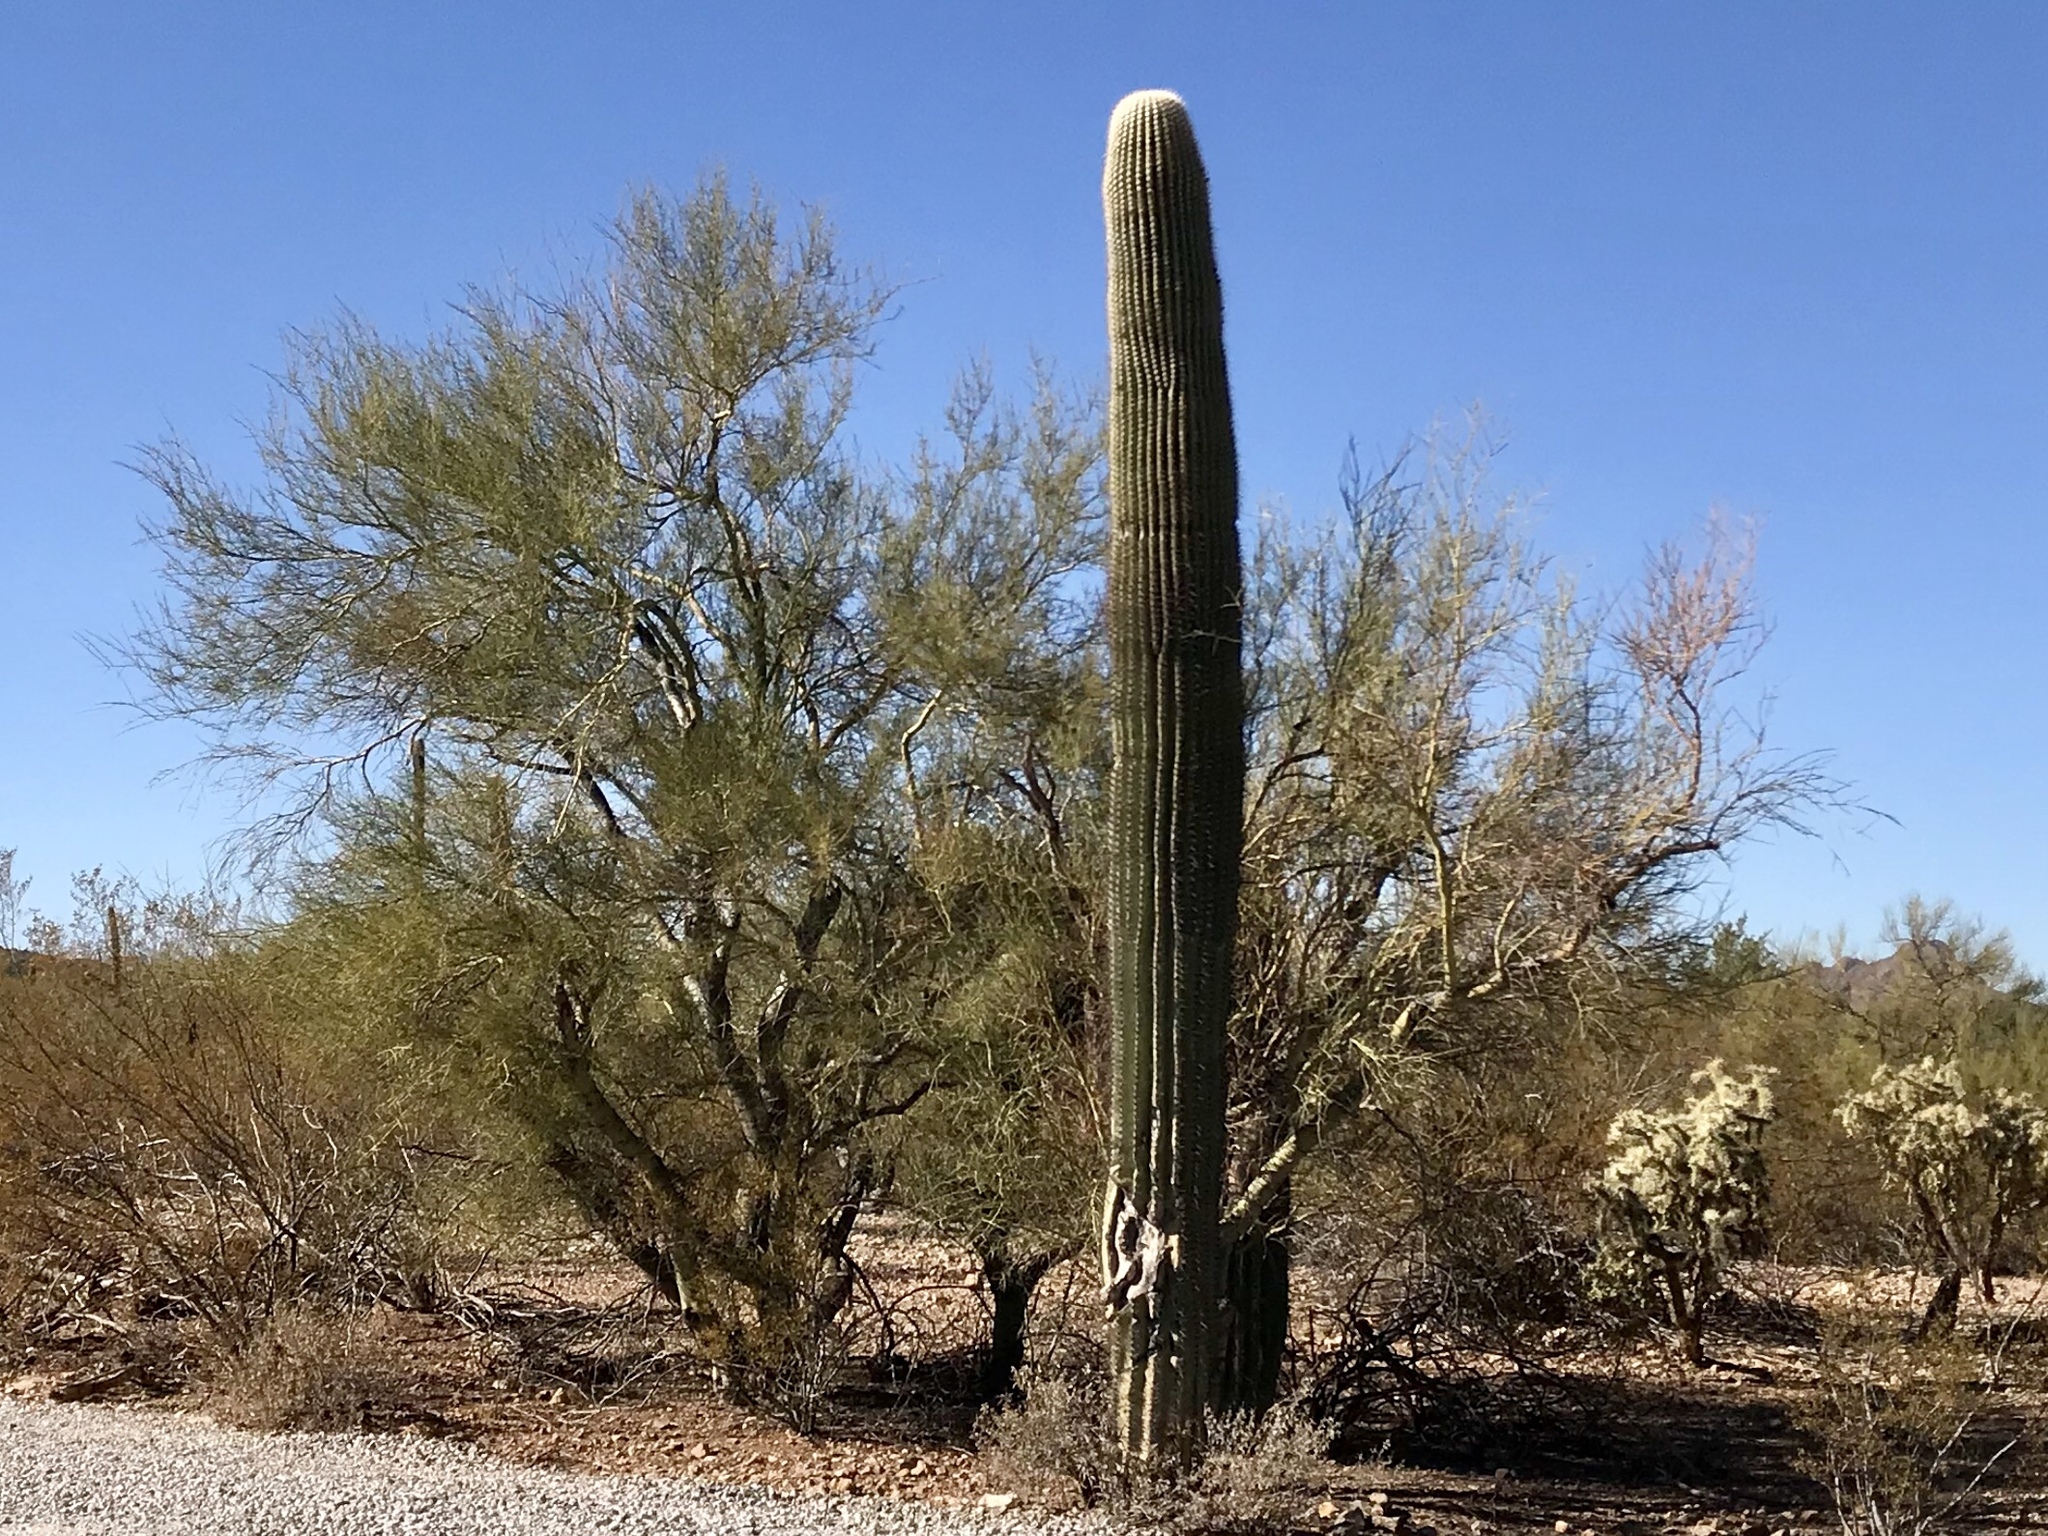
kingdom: Plantae
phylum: Tracheophyta
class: Magnoliopsida
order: Fabales
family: Fabaceae
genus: Parkinsonia
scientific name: Parkinsonia microphylla
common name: Yellow paloverde
